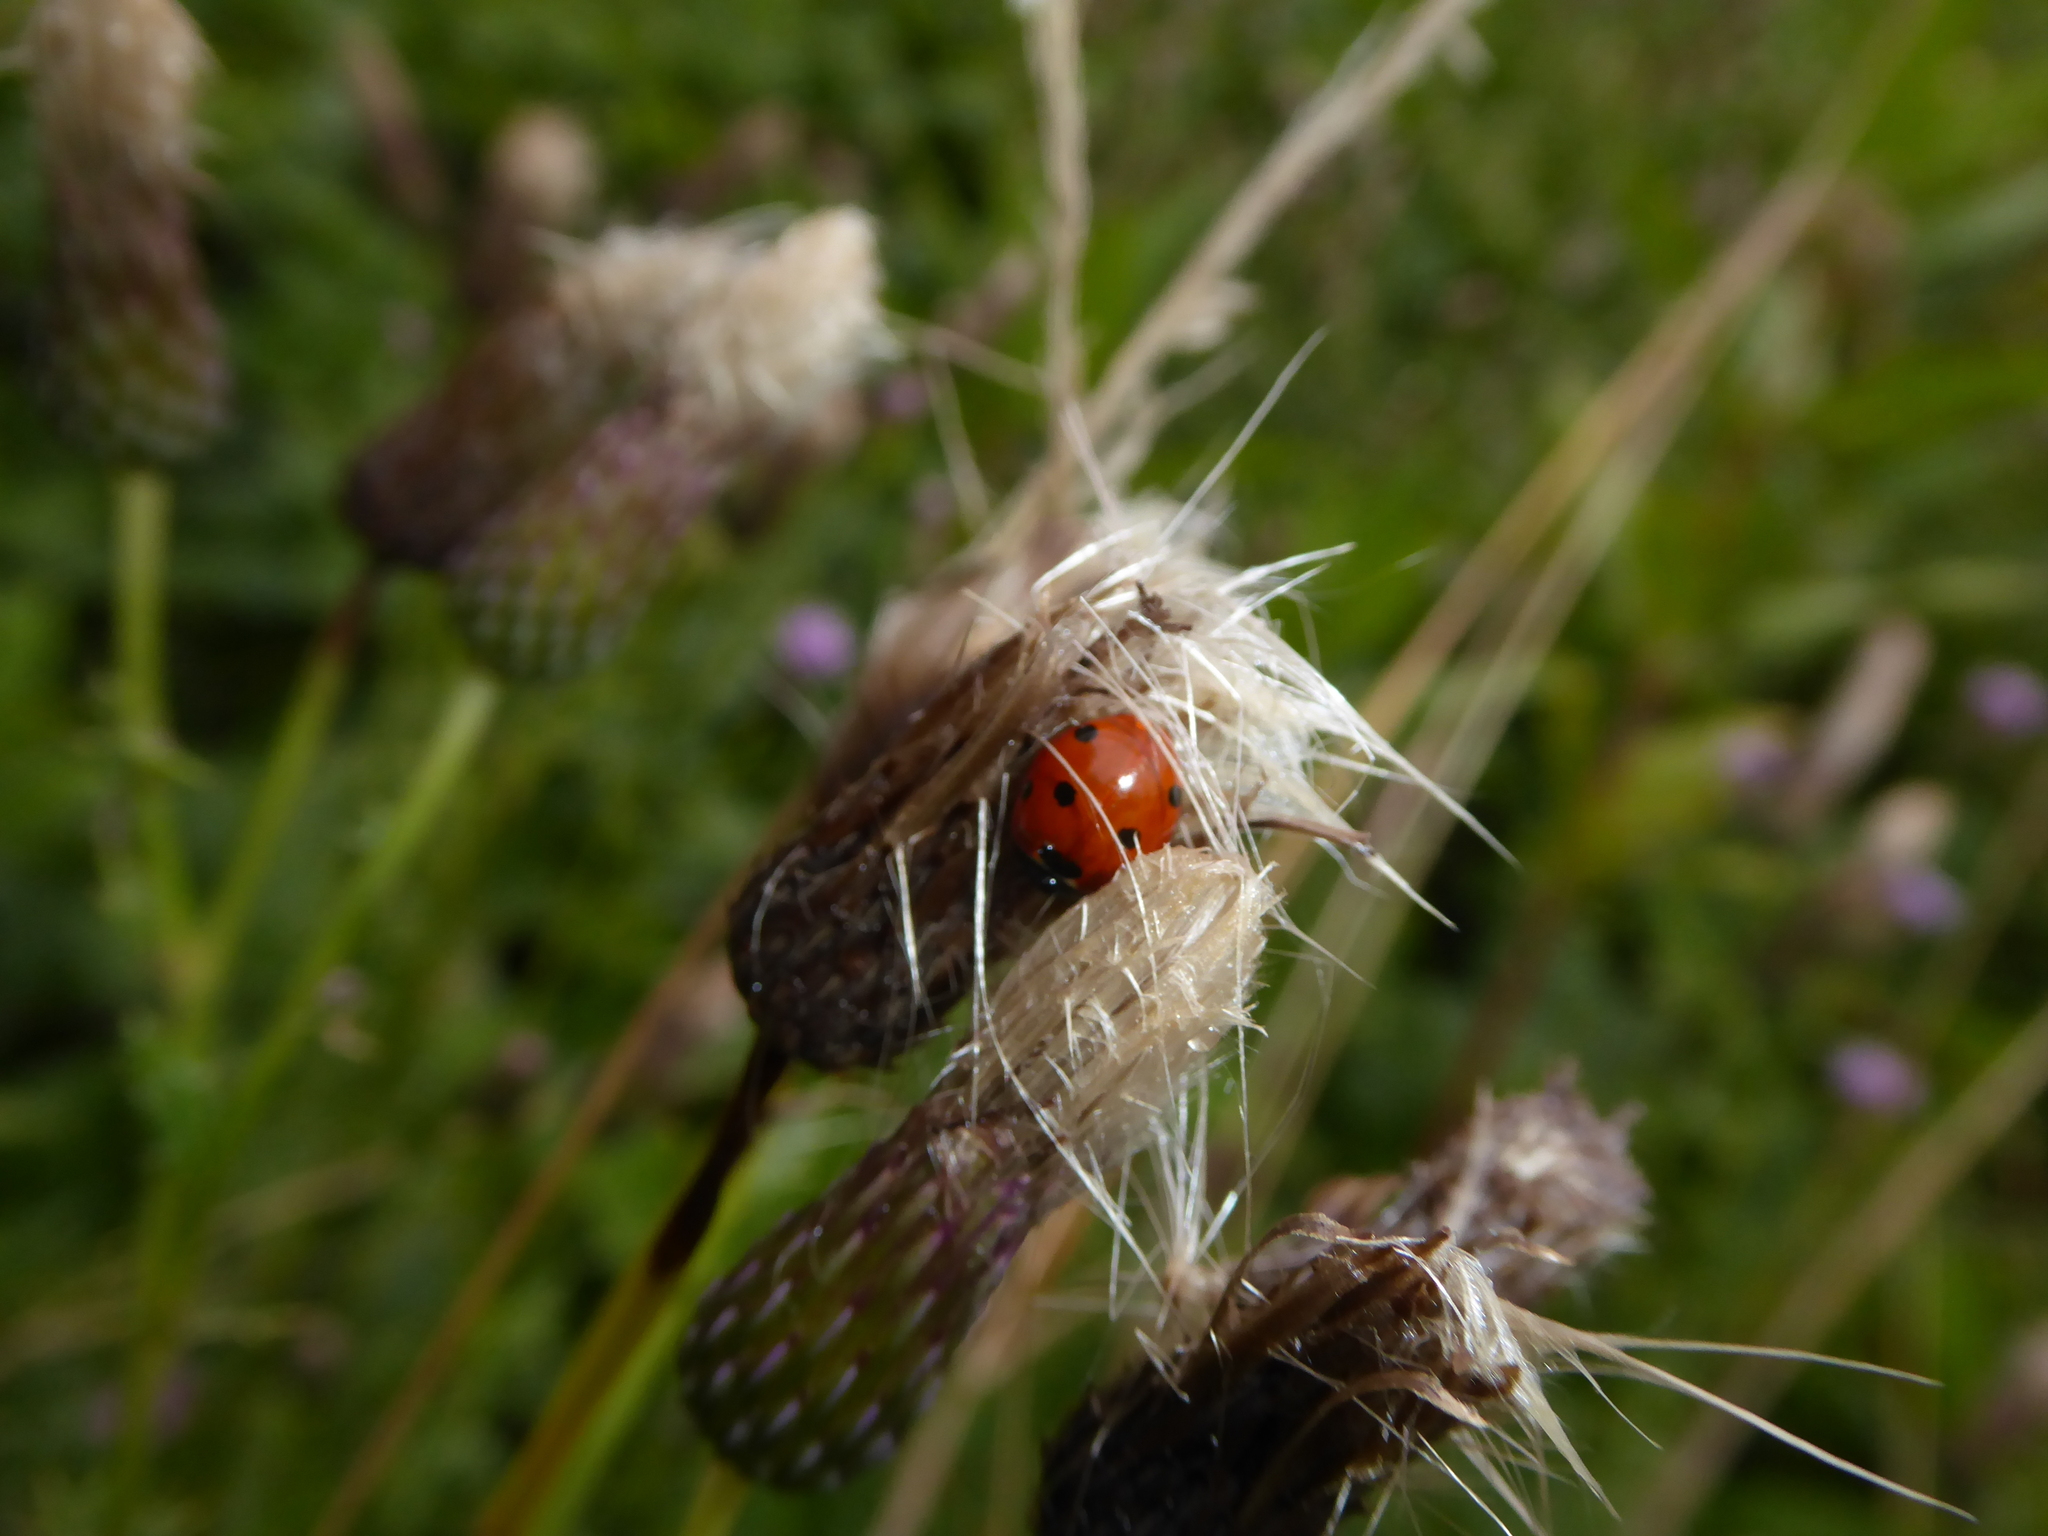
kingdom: Animalia
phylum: Arthropoda
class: Insecta
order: Coleoptera
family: Coccinellidae
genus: Coccinella
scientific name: Coccinella septempunctata
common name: Sevenspotted lady beetle
